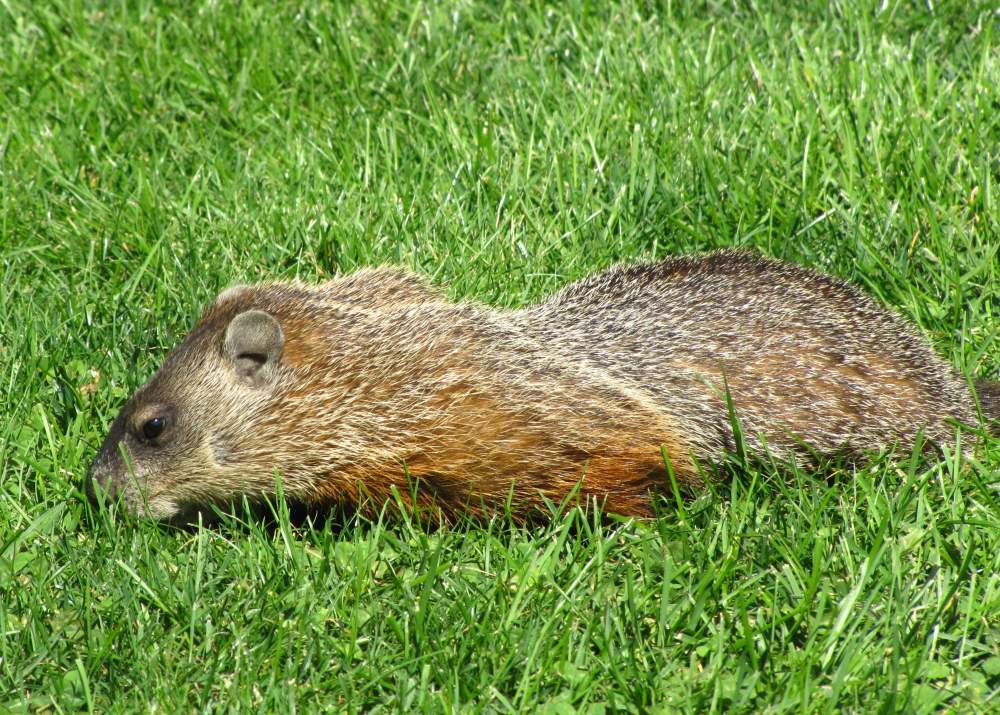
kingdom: Animalia
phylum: Chordata
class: Mammalia
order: Rodentia
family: Sciuridae
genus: Marmota
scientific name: Marmota monax
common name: Groundhog
